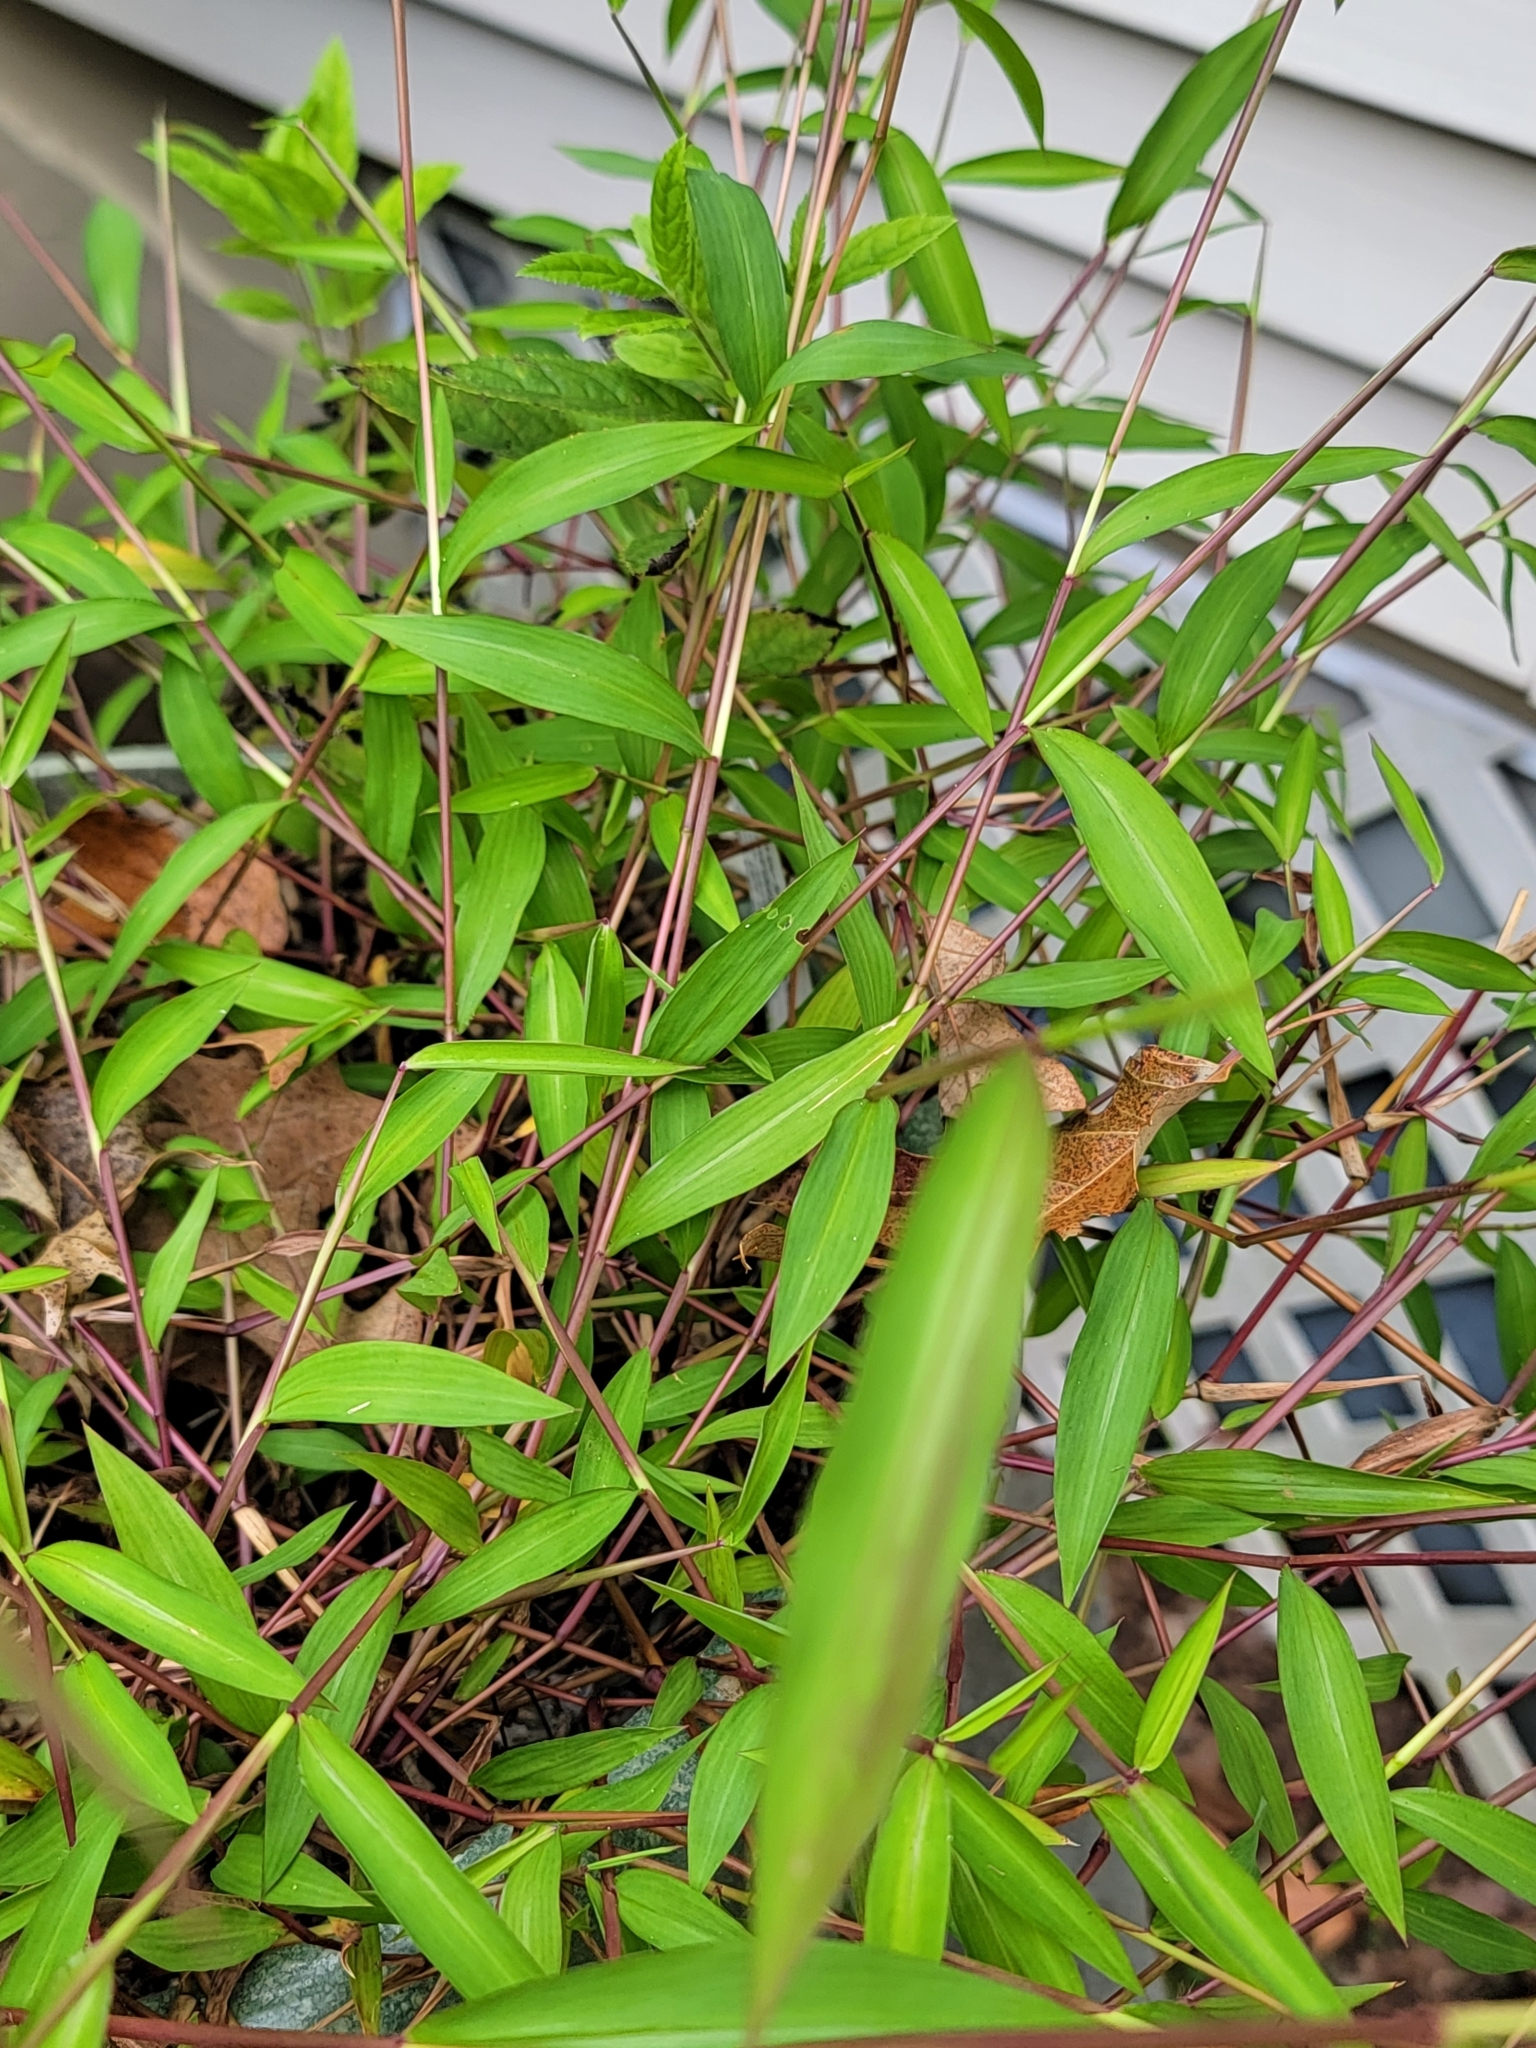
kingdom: Plantae
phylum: Tracheophyta
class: Liliopsida
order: Poales
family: Poaceae
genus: Microstegium
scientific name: Microstegium vimineum
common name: Japanese stiltgrass
